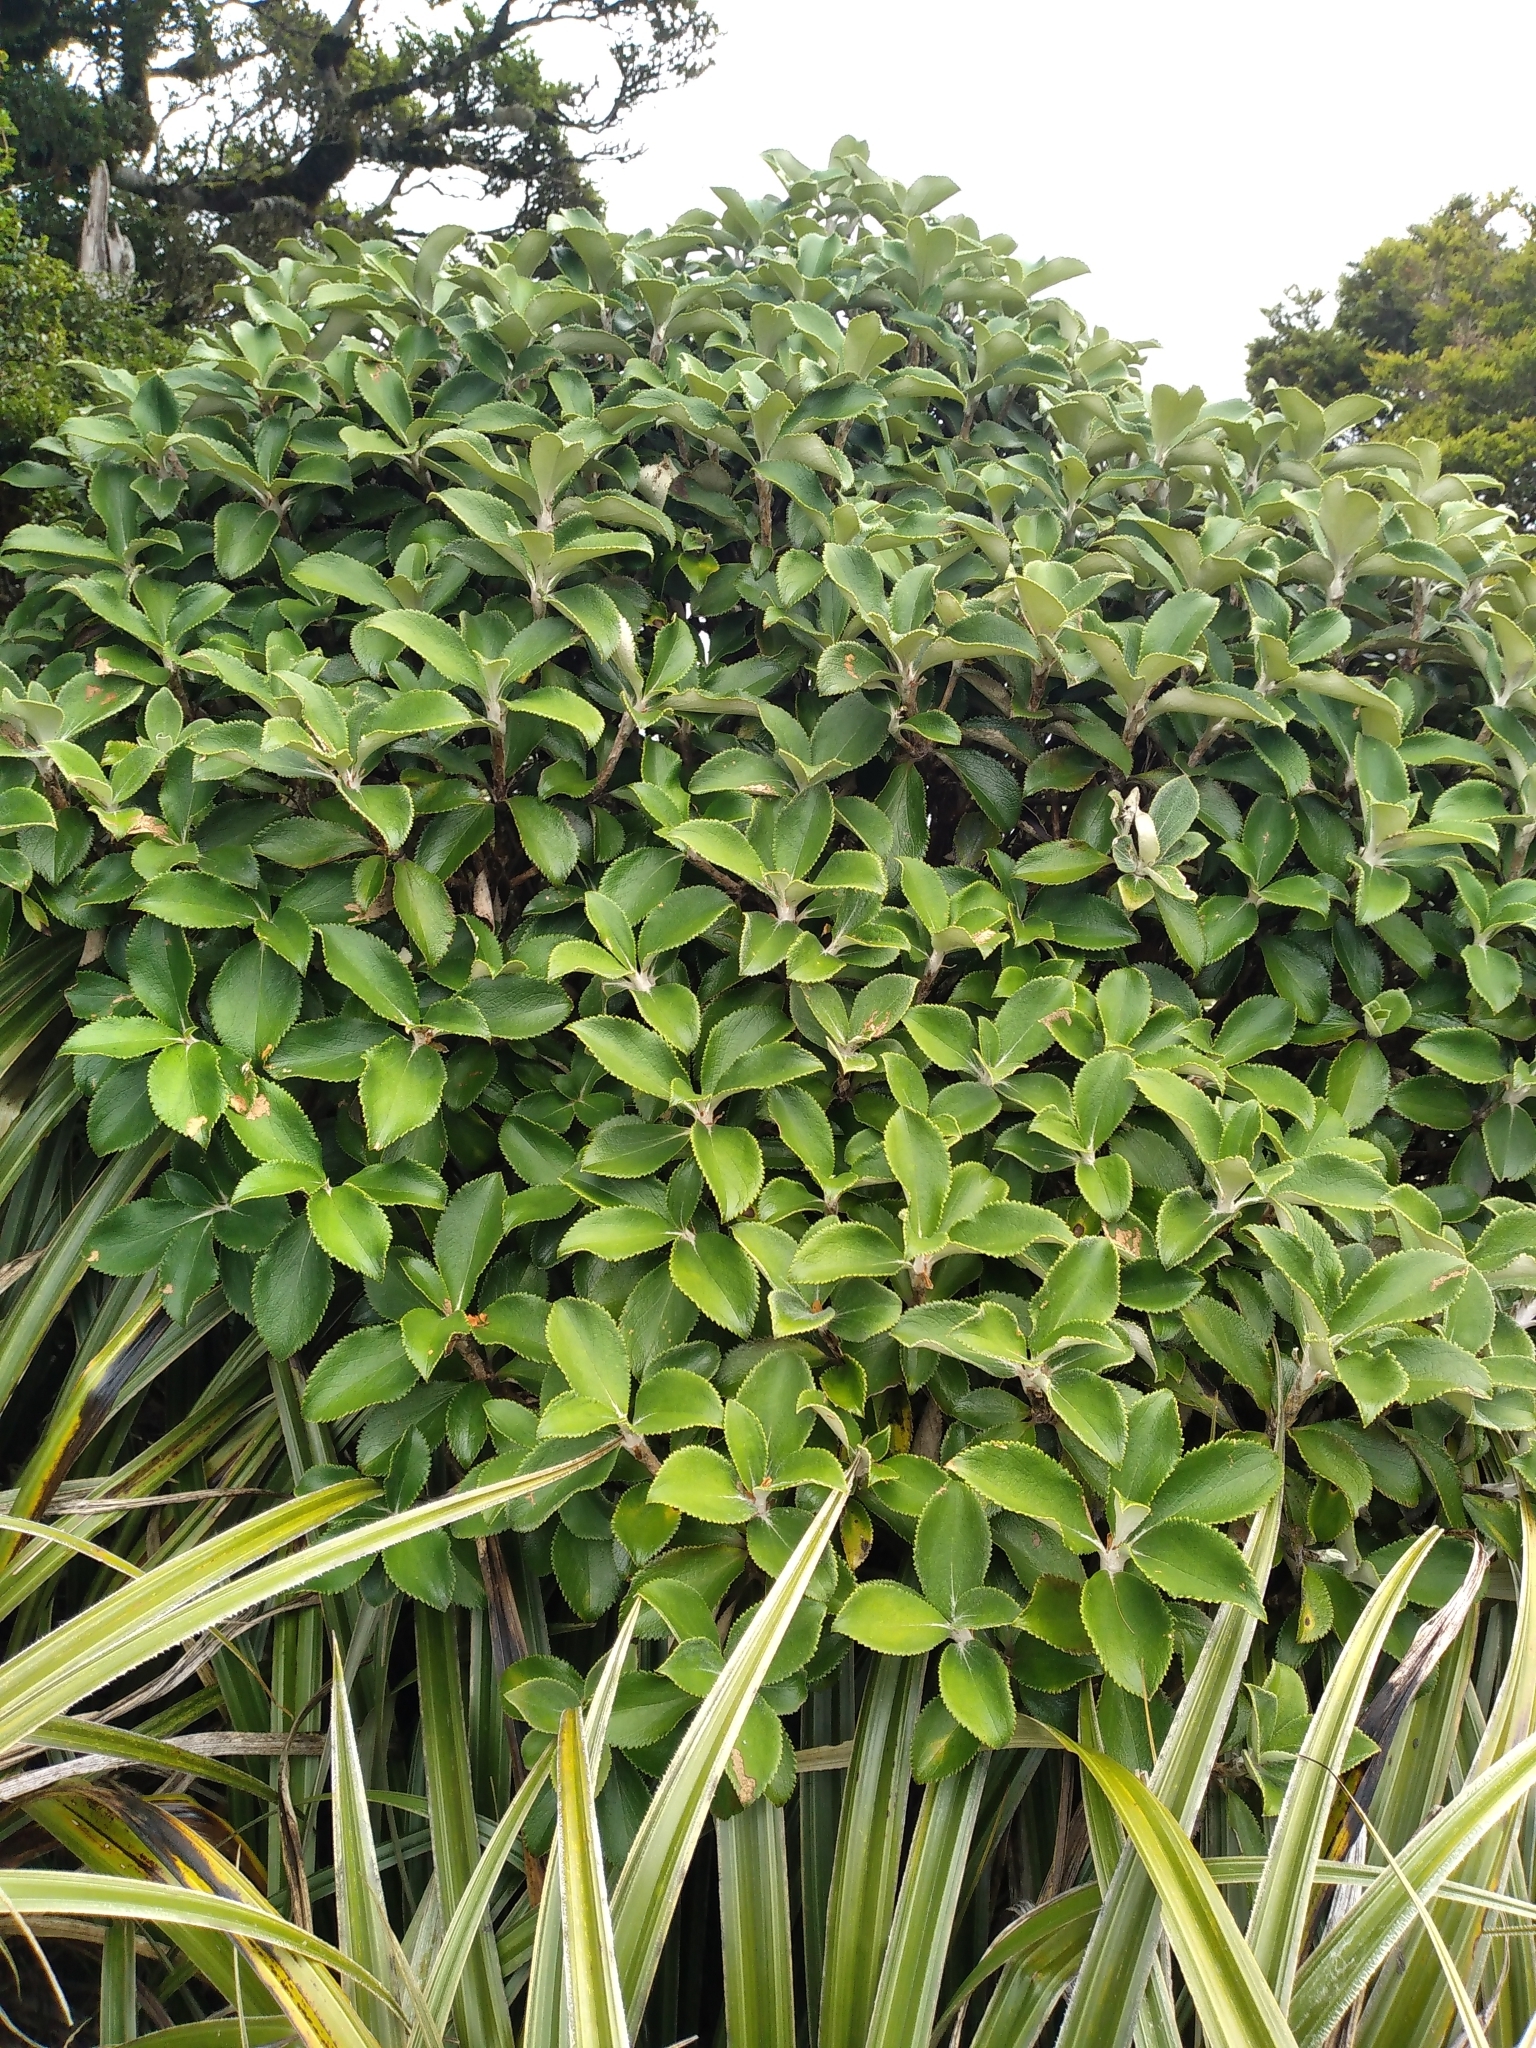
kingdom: Plantae
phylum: Tracheophyta
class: Magnoliopsida
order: Asterales
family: Asteraceae
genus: Macrolearia
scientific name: Macrolearia colensoi
